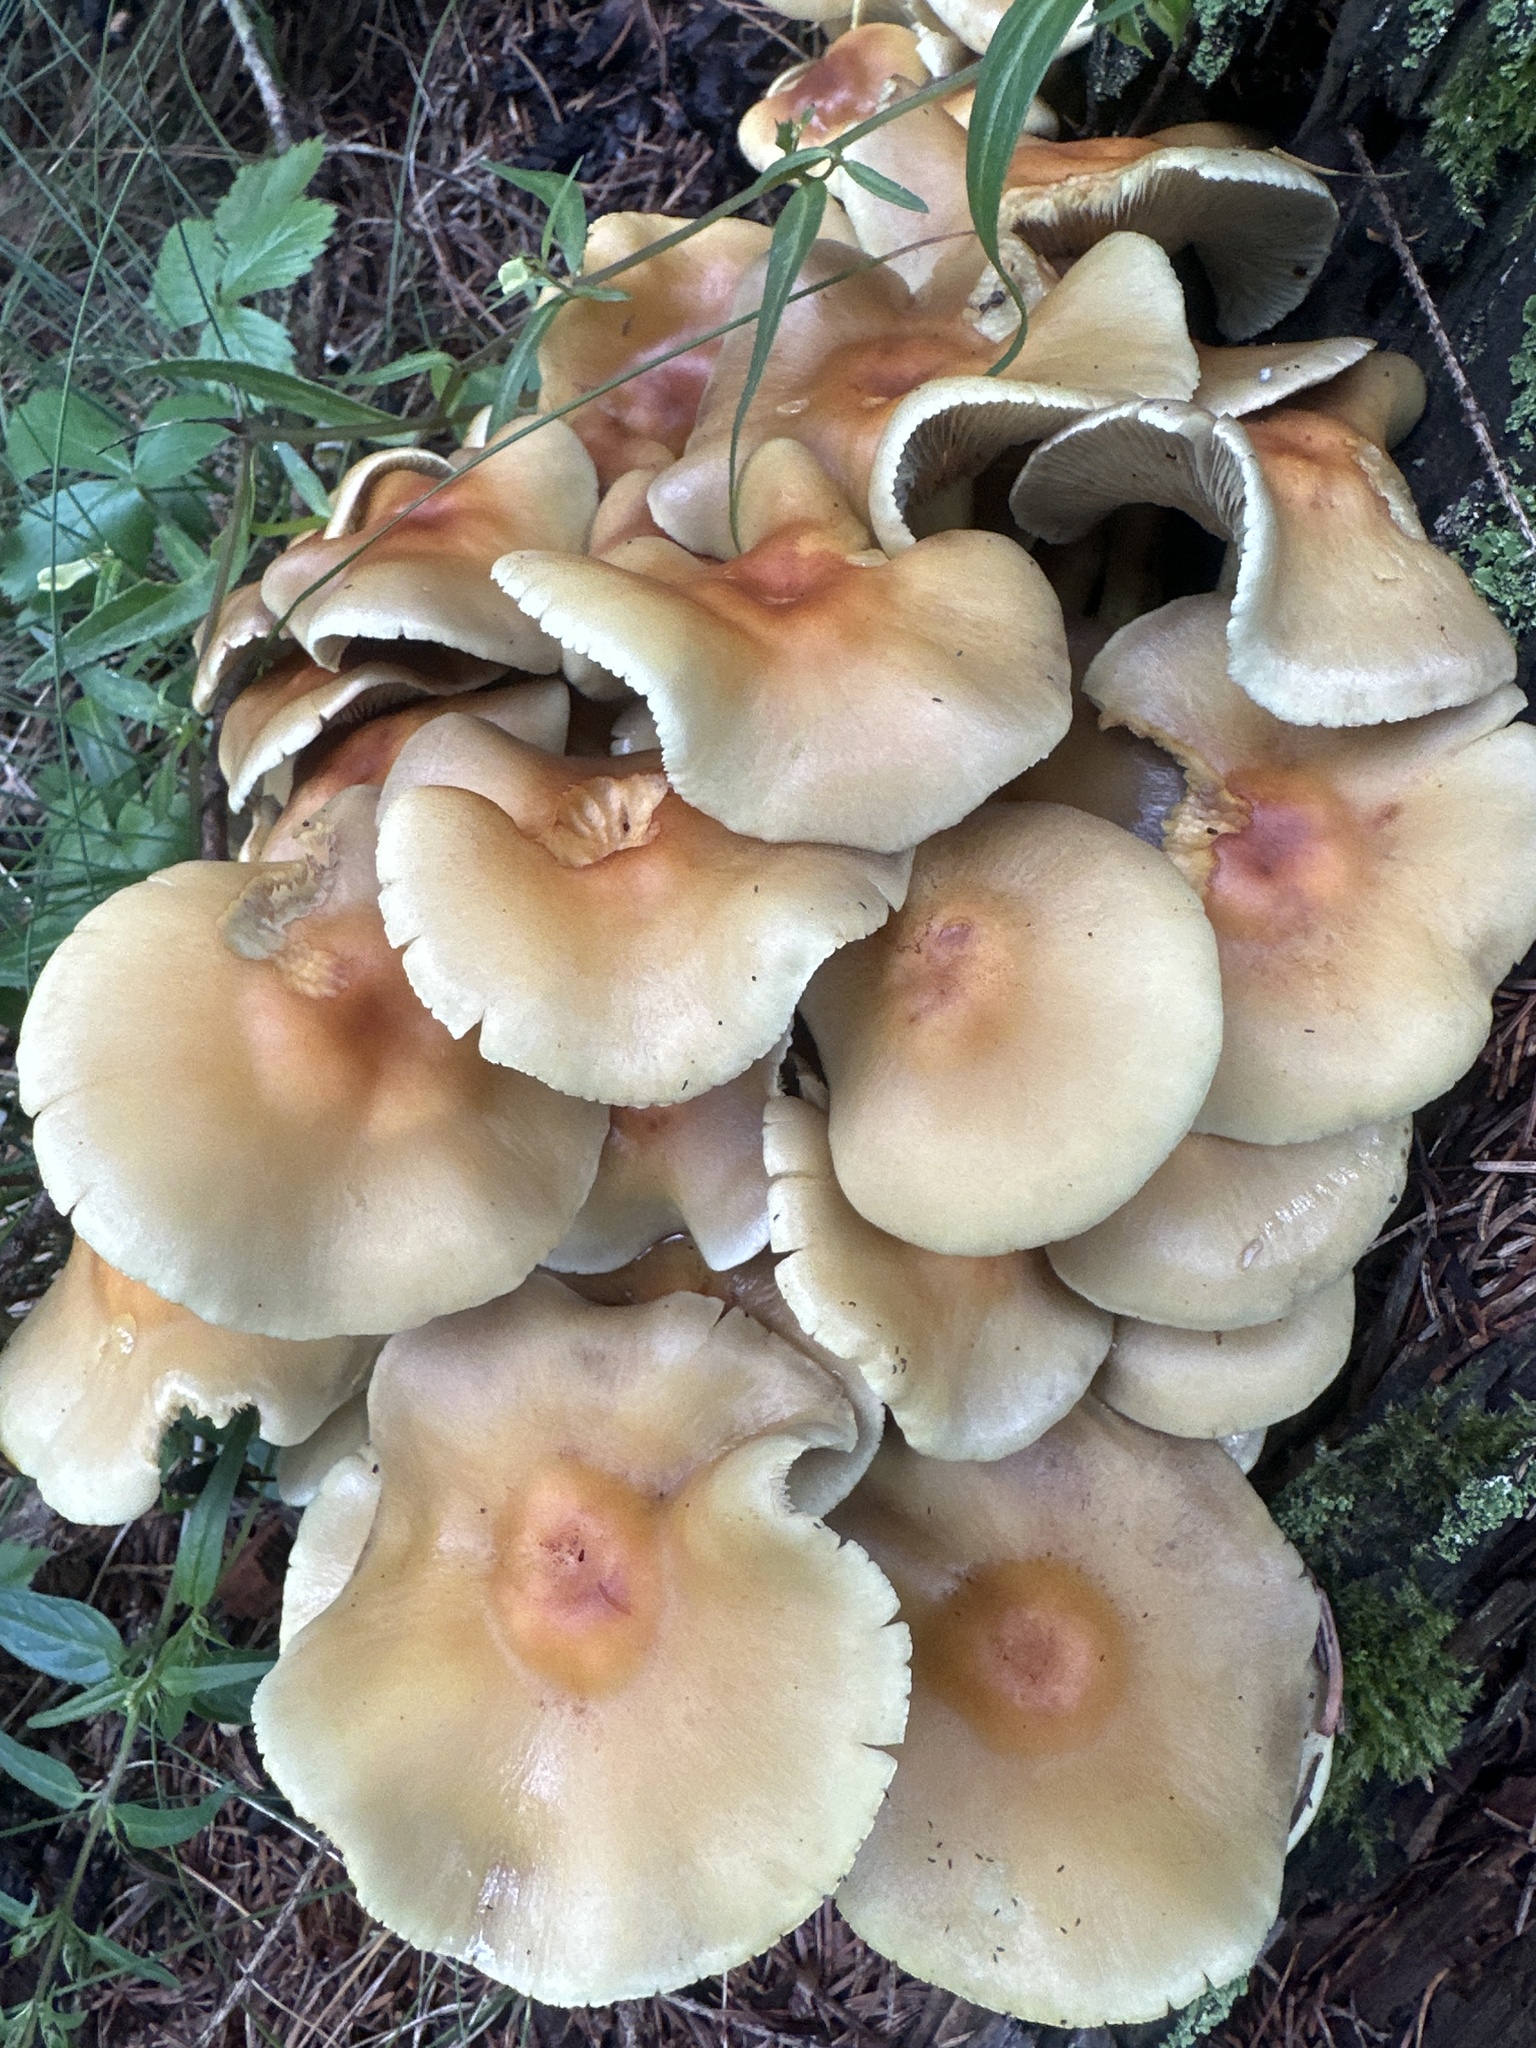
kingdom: Fungi
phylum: Basidiomycota
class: Agaricomycetes
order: Agaricales
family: Strophariaceae
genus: Hypholoma
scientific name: Hypholoma fasciculare
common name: Sulphur tuft
